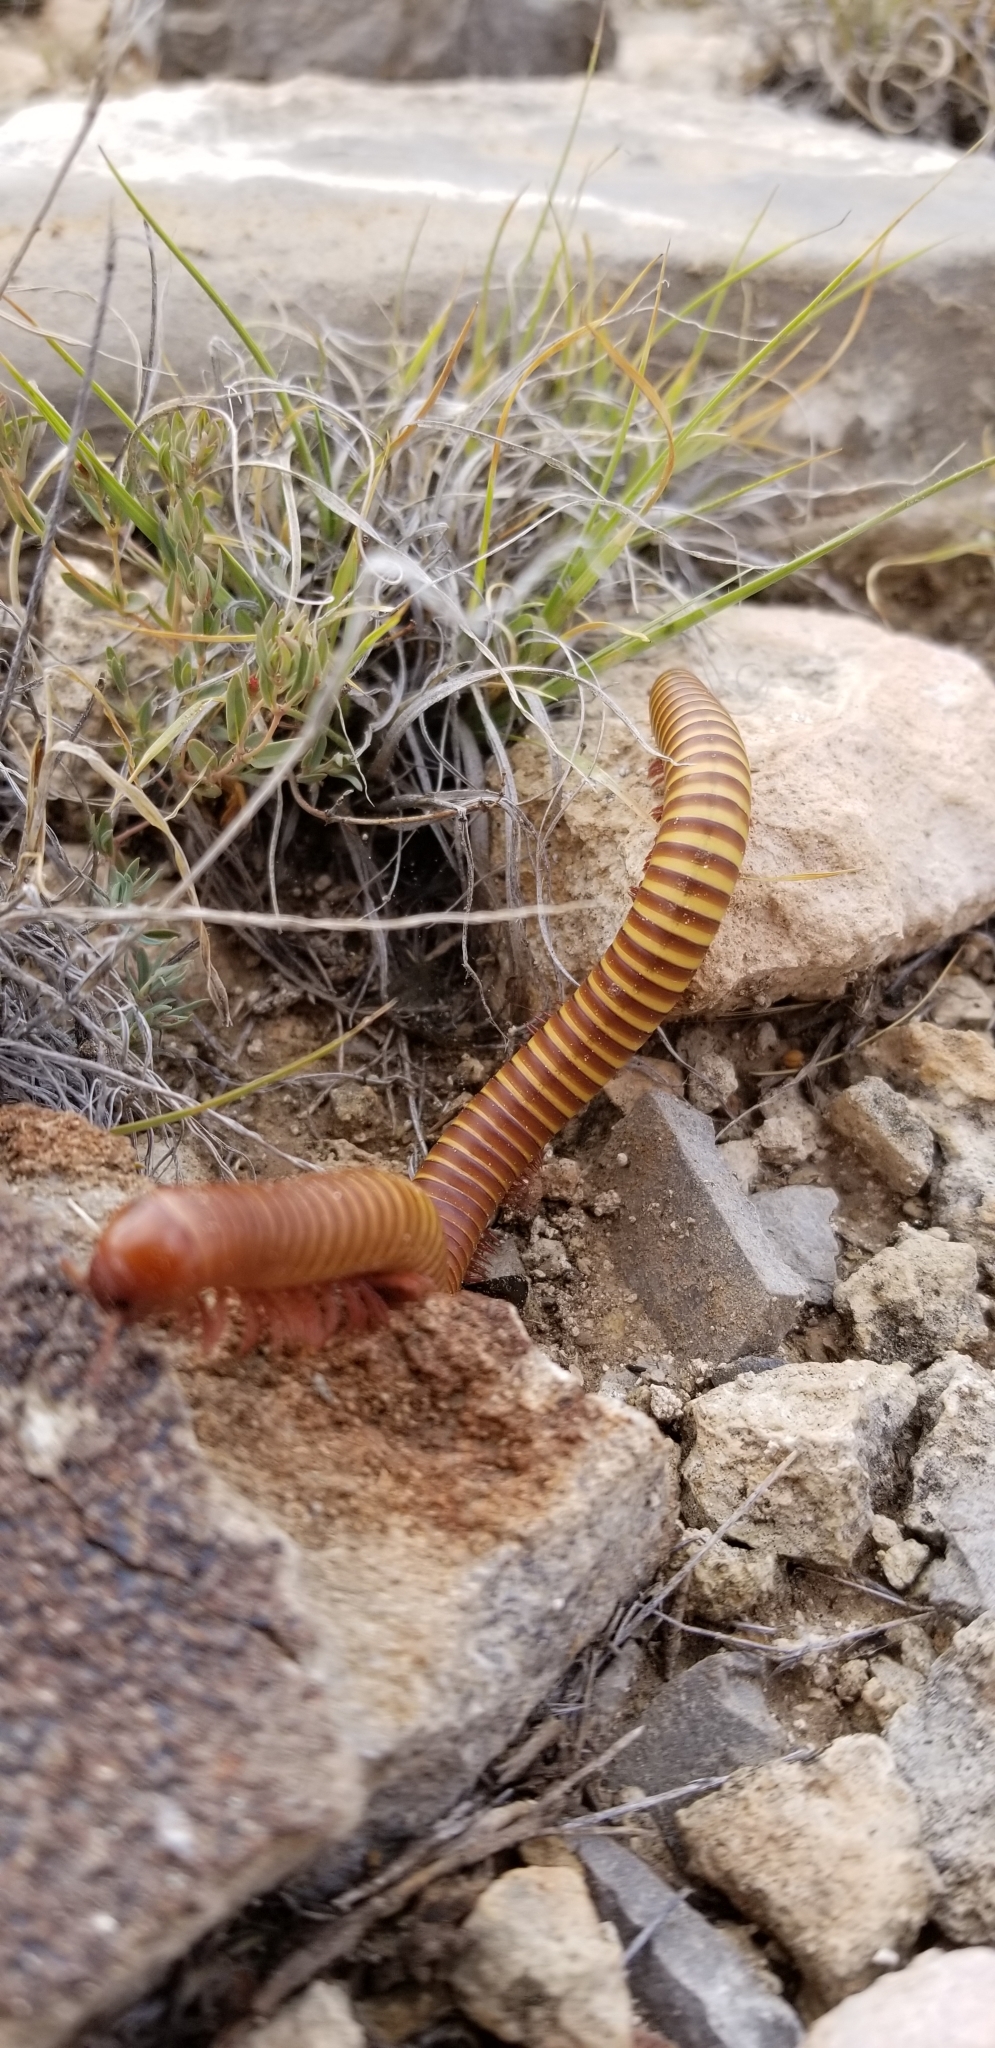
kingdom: Animalia
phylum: Arthropoda
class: Diplopoda
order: Spirostreptida
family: Spirostreptidae
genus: Orthoporus
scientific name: Orthoporus ornatus
